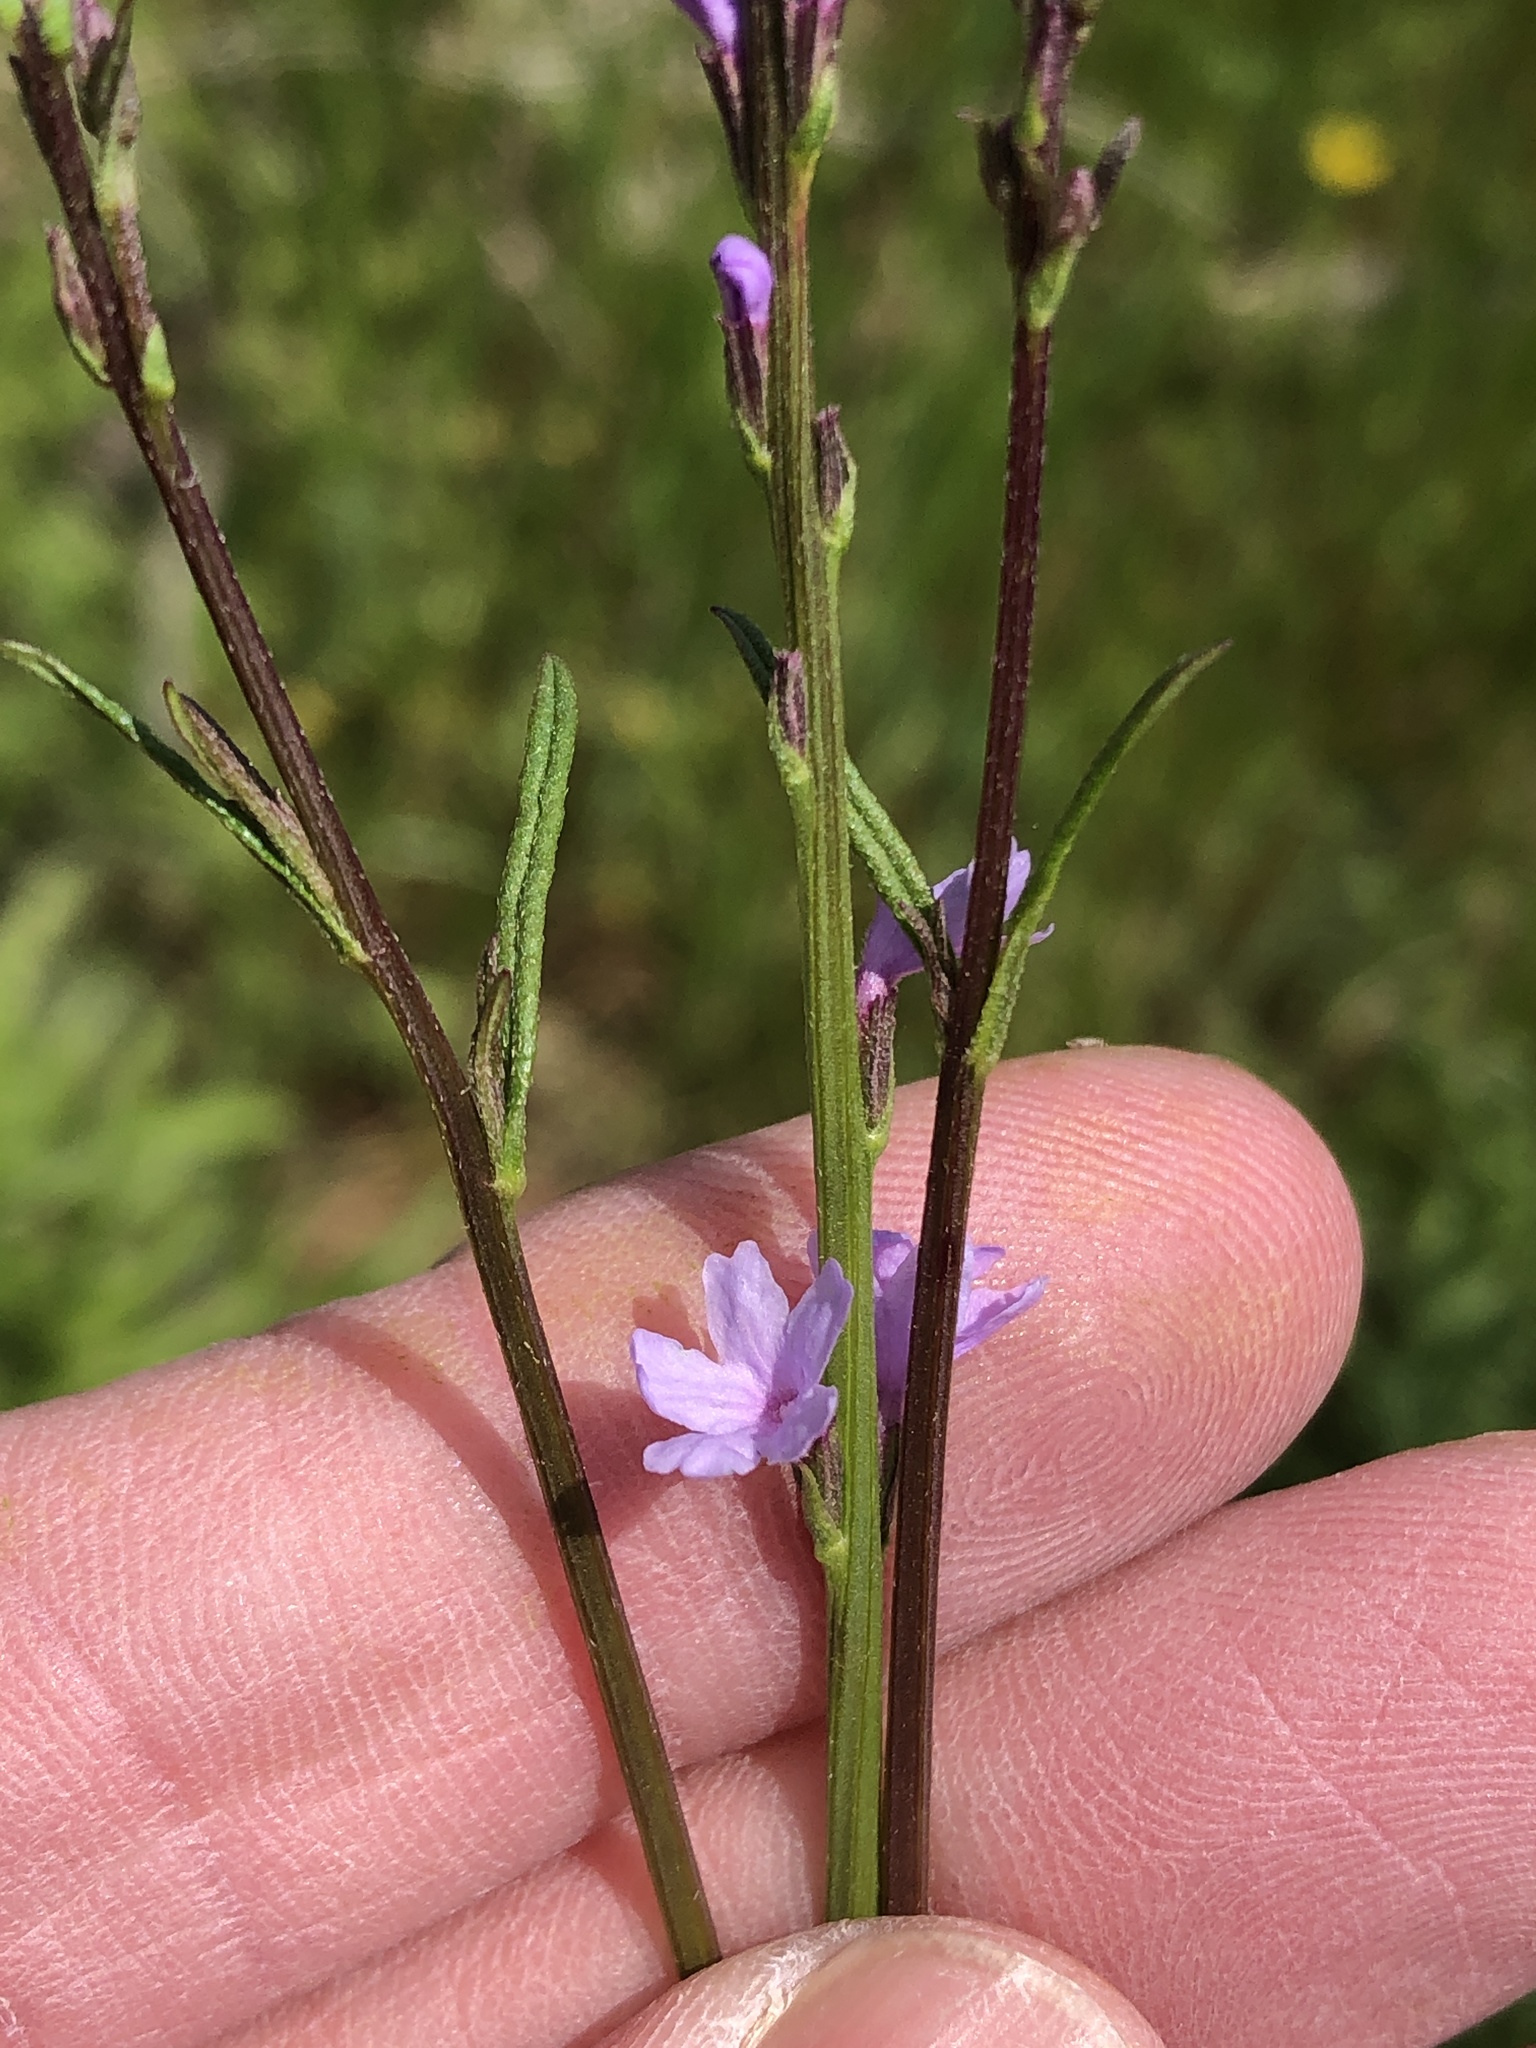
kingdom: Plantae
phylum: Tracheophyta
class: Magnoliopsida
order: Lamiales
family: Verbenaceae
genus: Verbena
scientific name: Verbena halei
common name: Texas vervain
